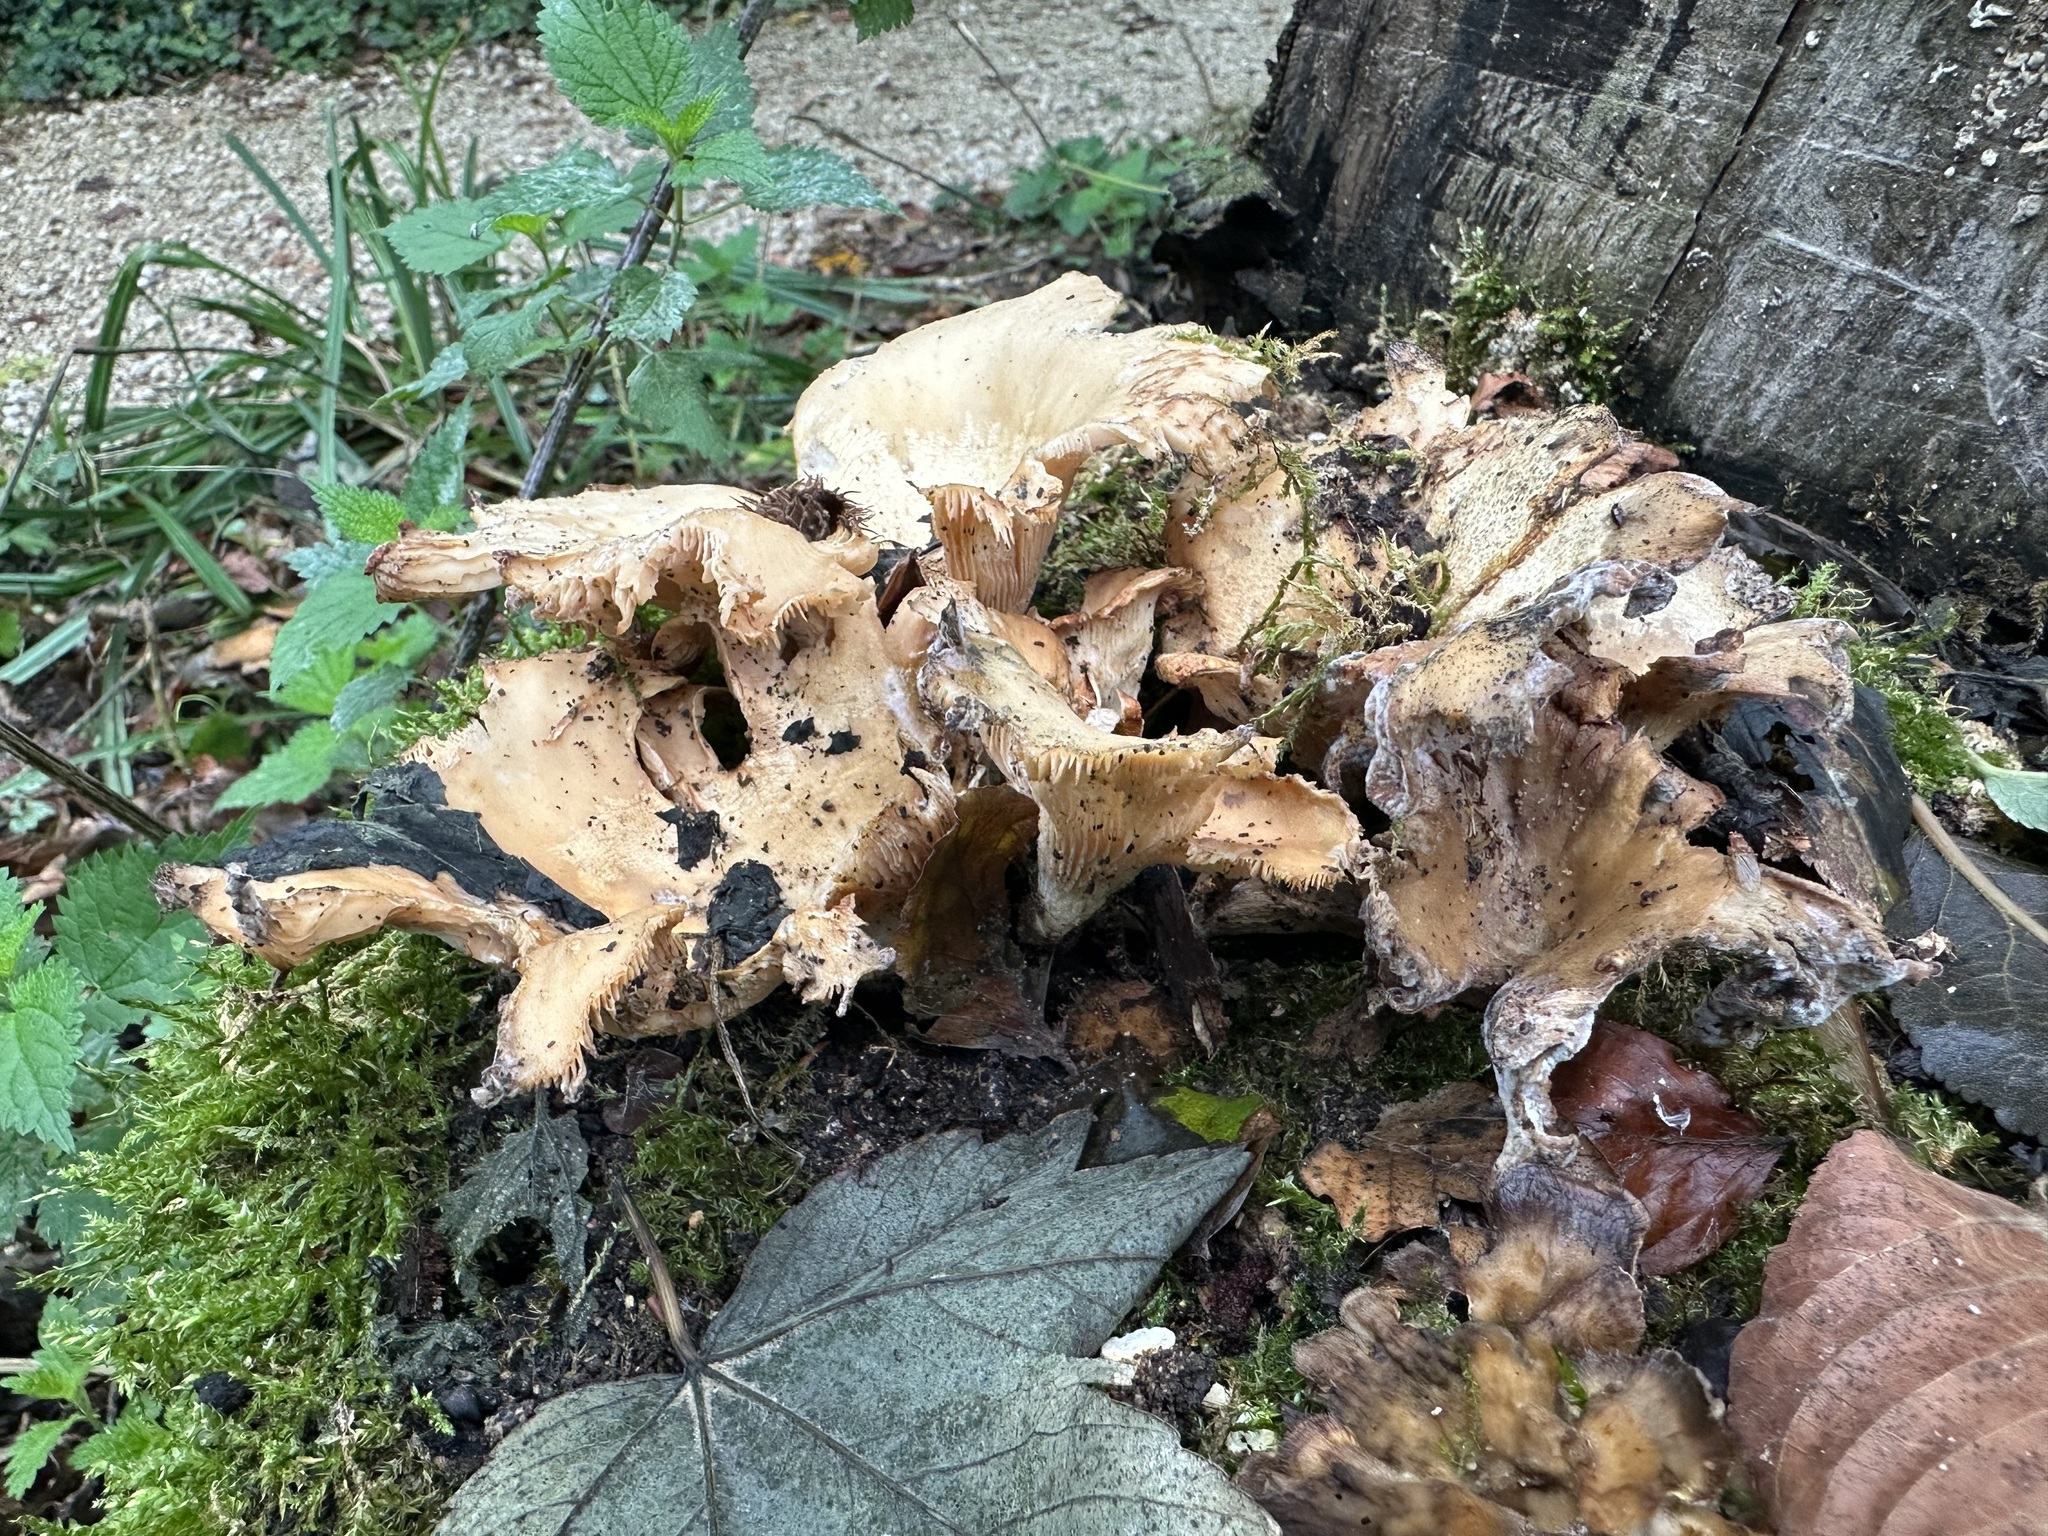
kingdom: Fungi
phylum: Basidiomycota
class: Agaricomycetes
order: Polyporales
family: Panaceae
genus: Panus
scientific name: Panus conchatus
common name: Lilac oysterling
